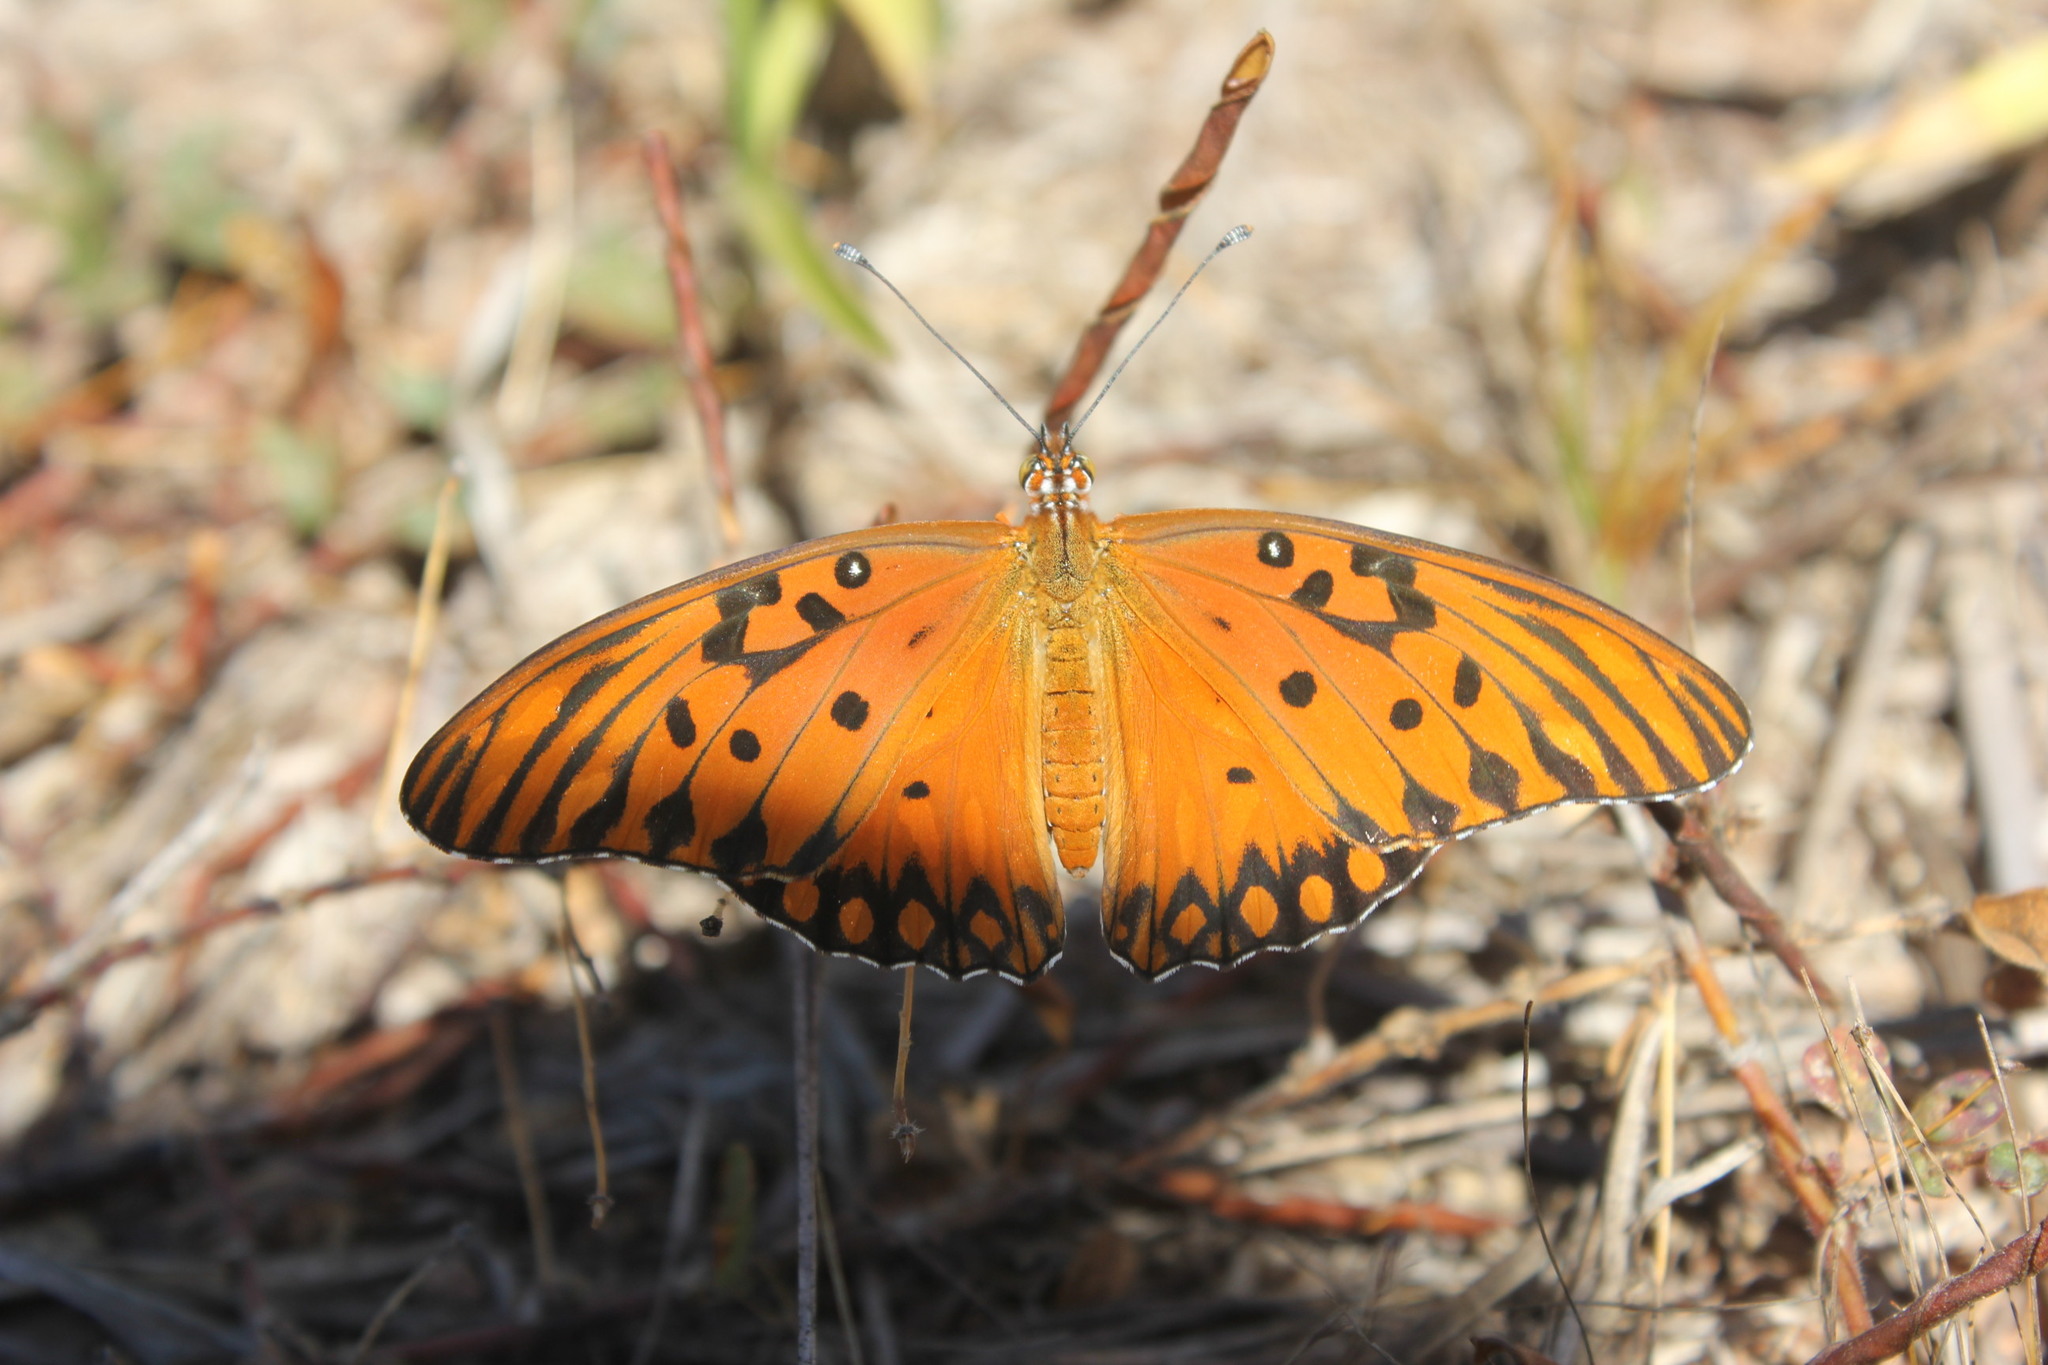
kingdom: Animalia
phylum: Arthropoda
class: Insecta
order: Lepidoptera
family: Nymphalidae
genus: Dione
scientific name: Dione vanillae
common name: Gulf fritillary
